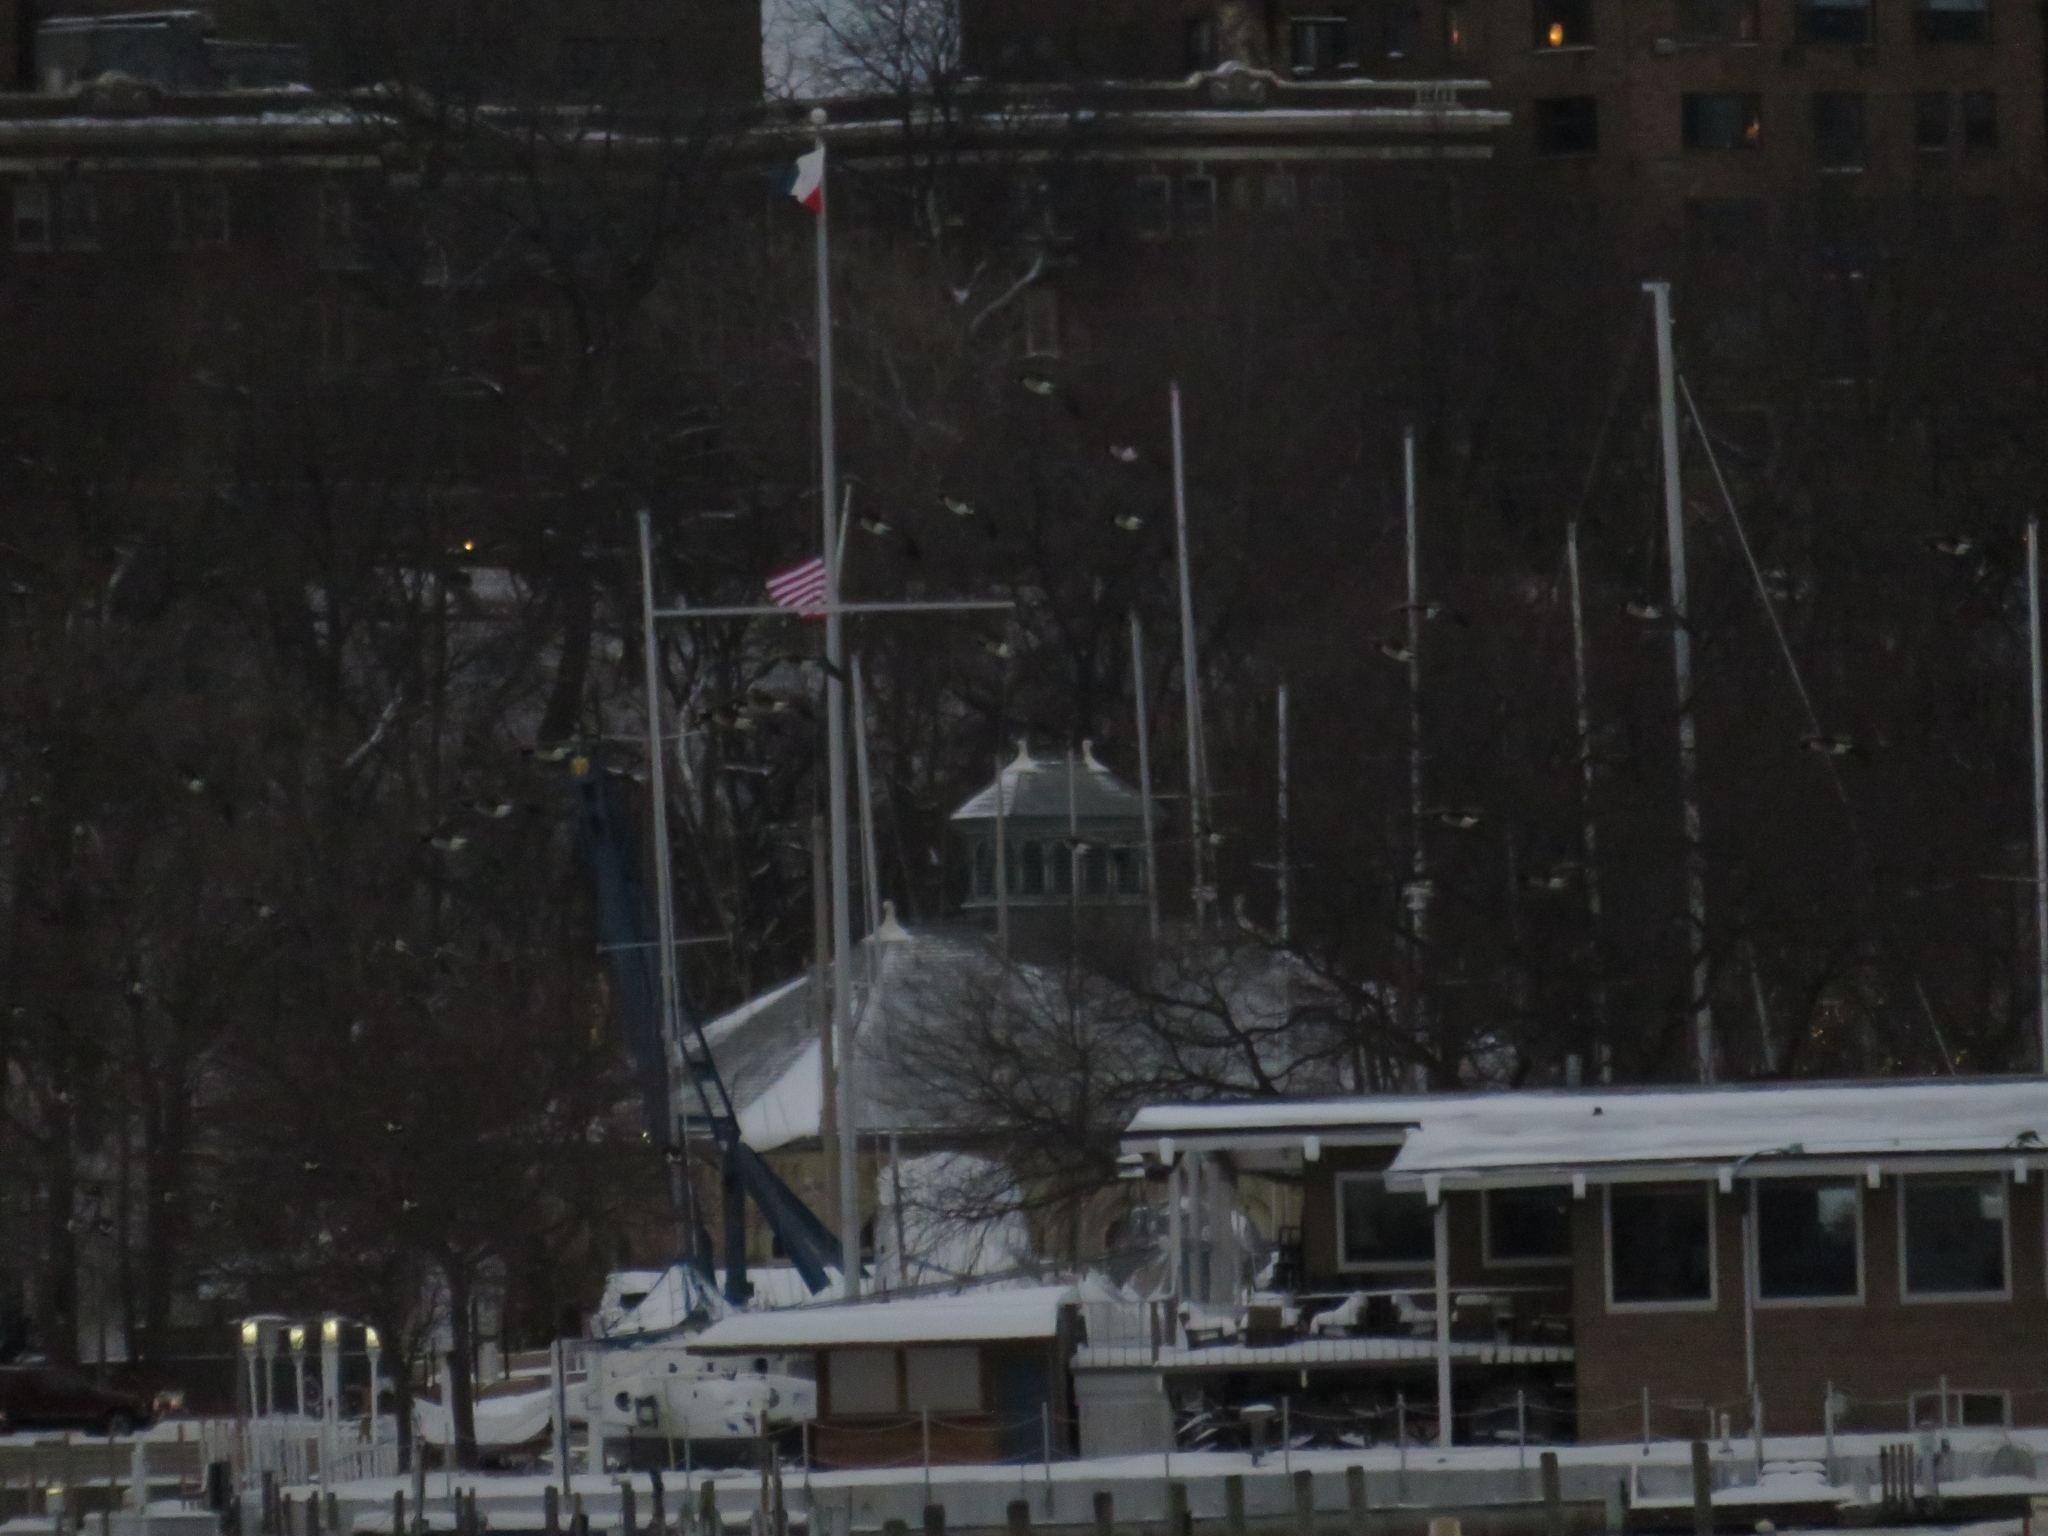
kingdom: Animalia
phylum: Chordata
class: Aves
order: Anseriformes
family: Anatidae
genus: Branta
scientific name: Branta canadensis
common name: Canada goose
